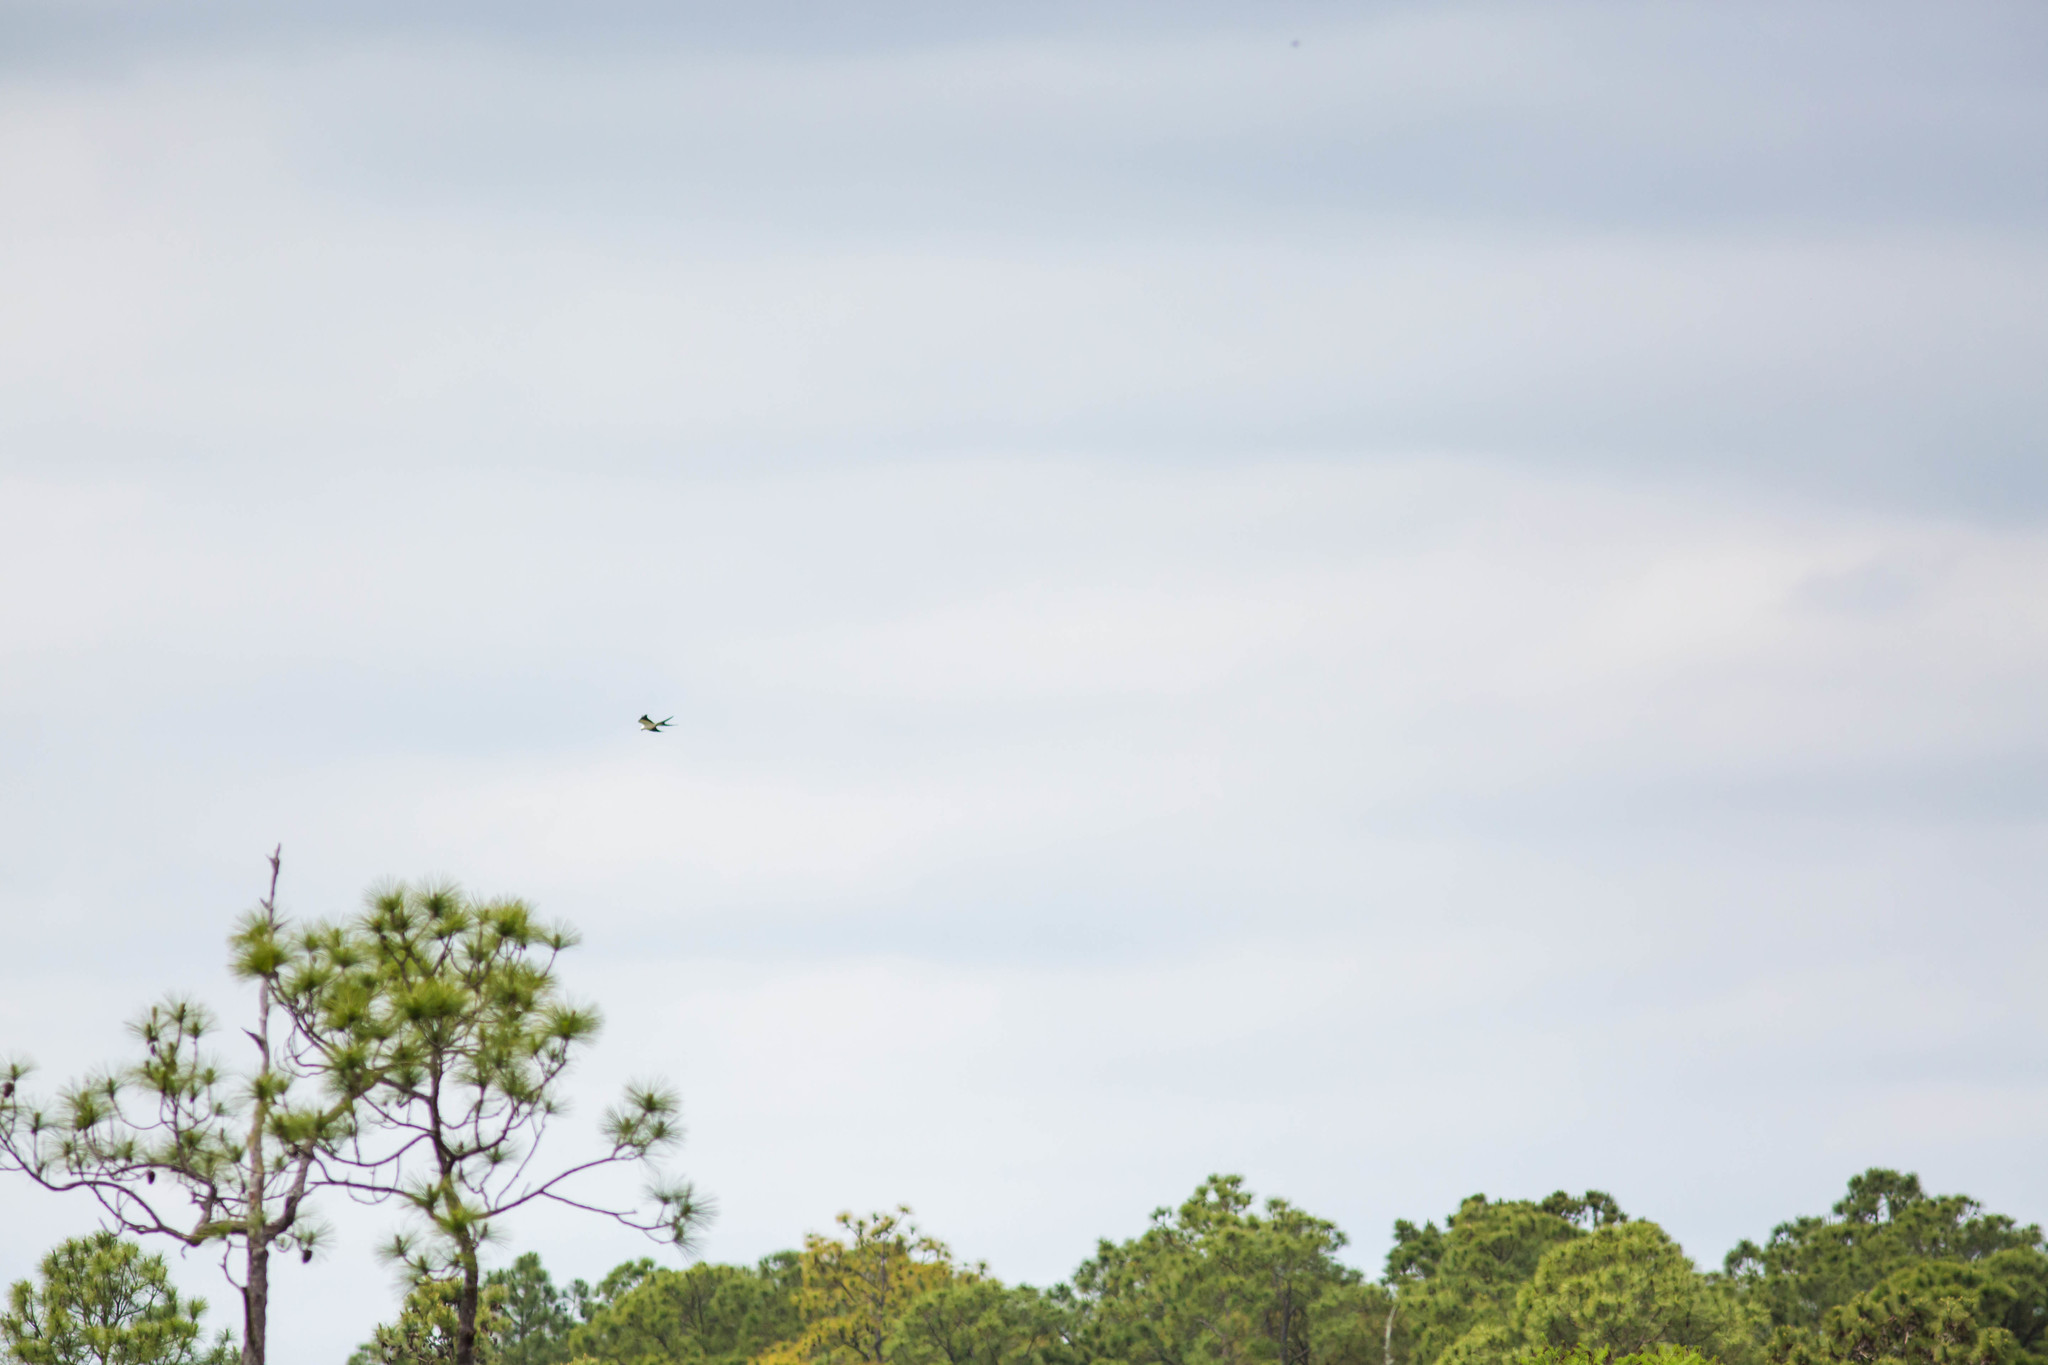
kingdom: Animalia
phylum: Chordata
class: Aves
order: Accipitriformes
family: Accipitridae
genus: Elanoides
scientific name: Elanoides forficatus
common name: Swallow-tailed kite
